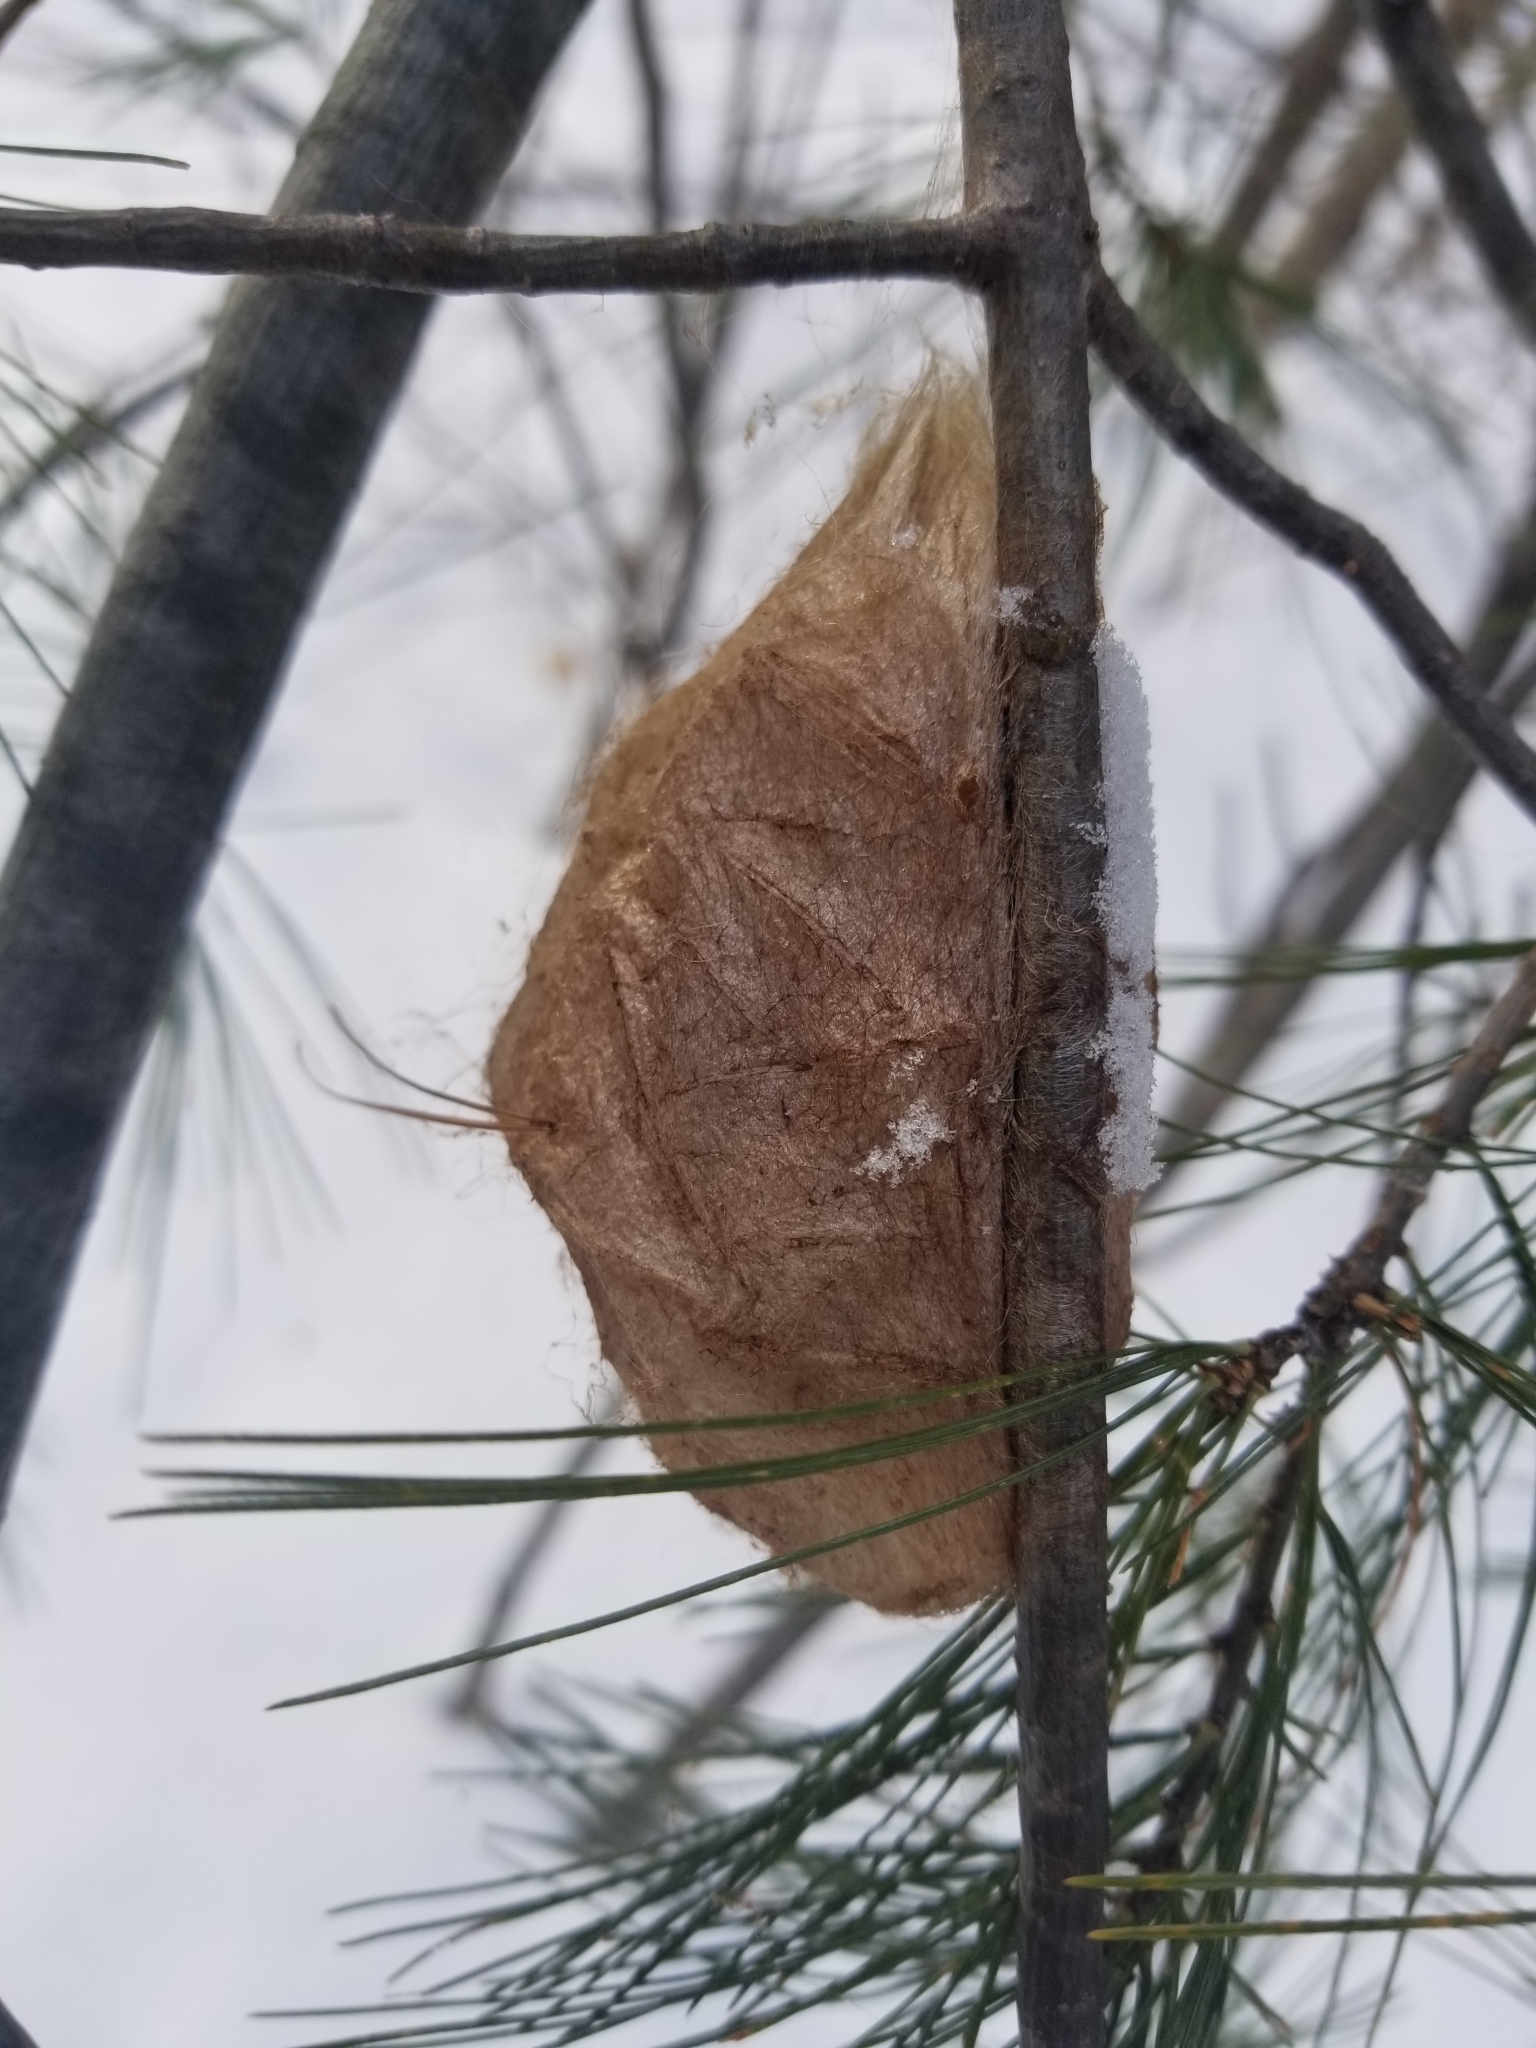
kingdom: Animalia
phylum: Arthropoda
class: Insecta
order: Lepidoptera
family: Saturniidae
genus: Hyalophora
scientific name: Hyalophora cecropia
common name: Cecropia silkmoth
